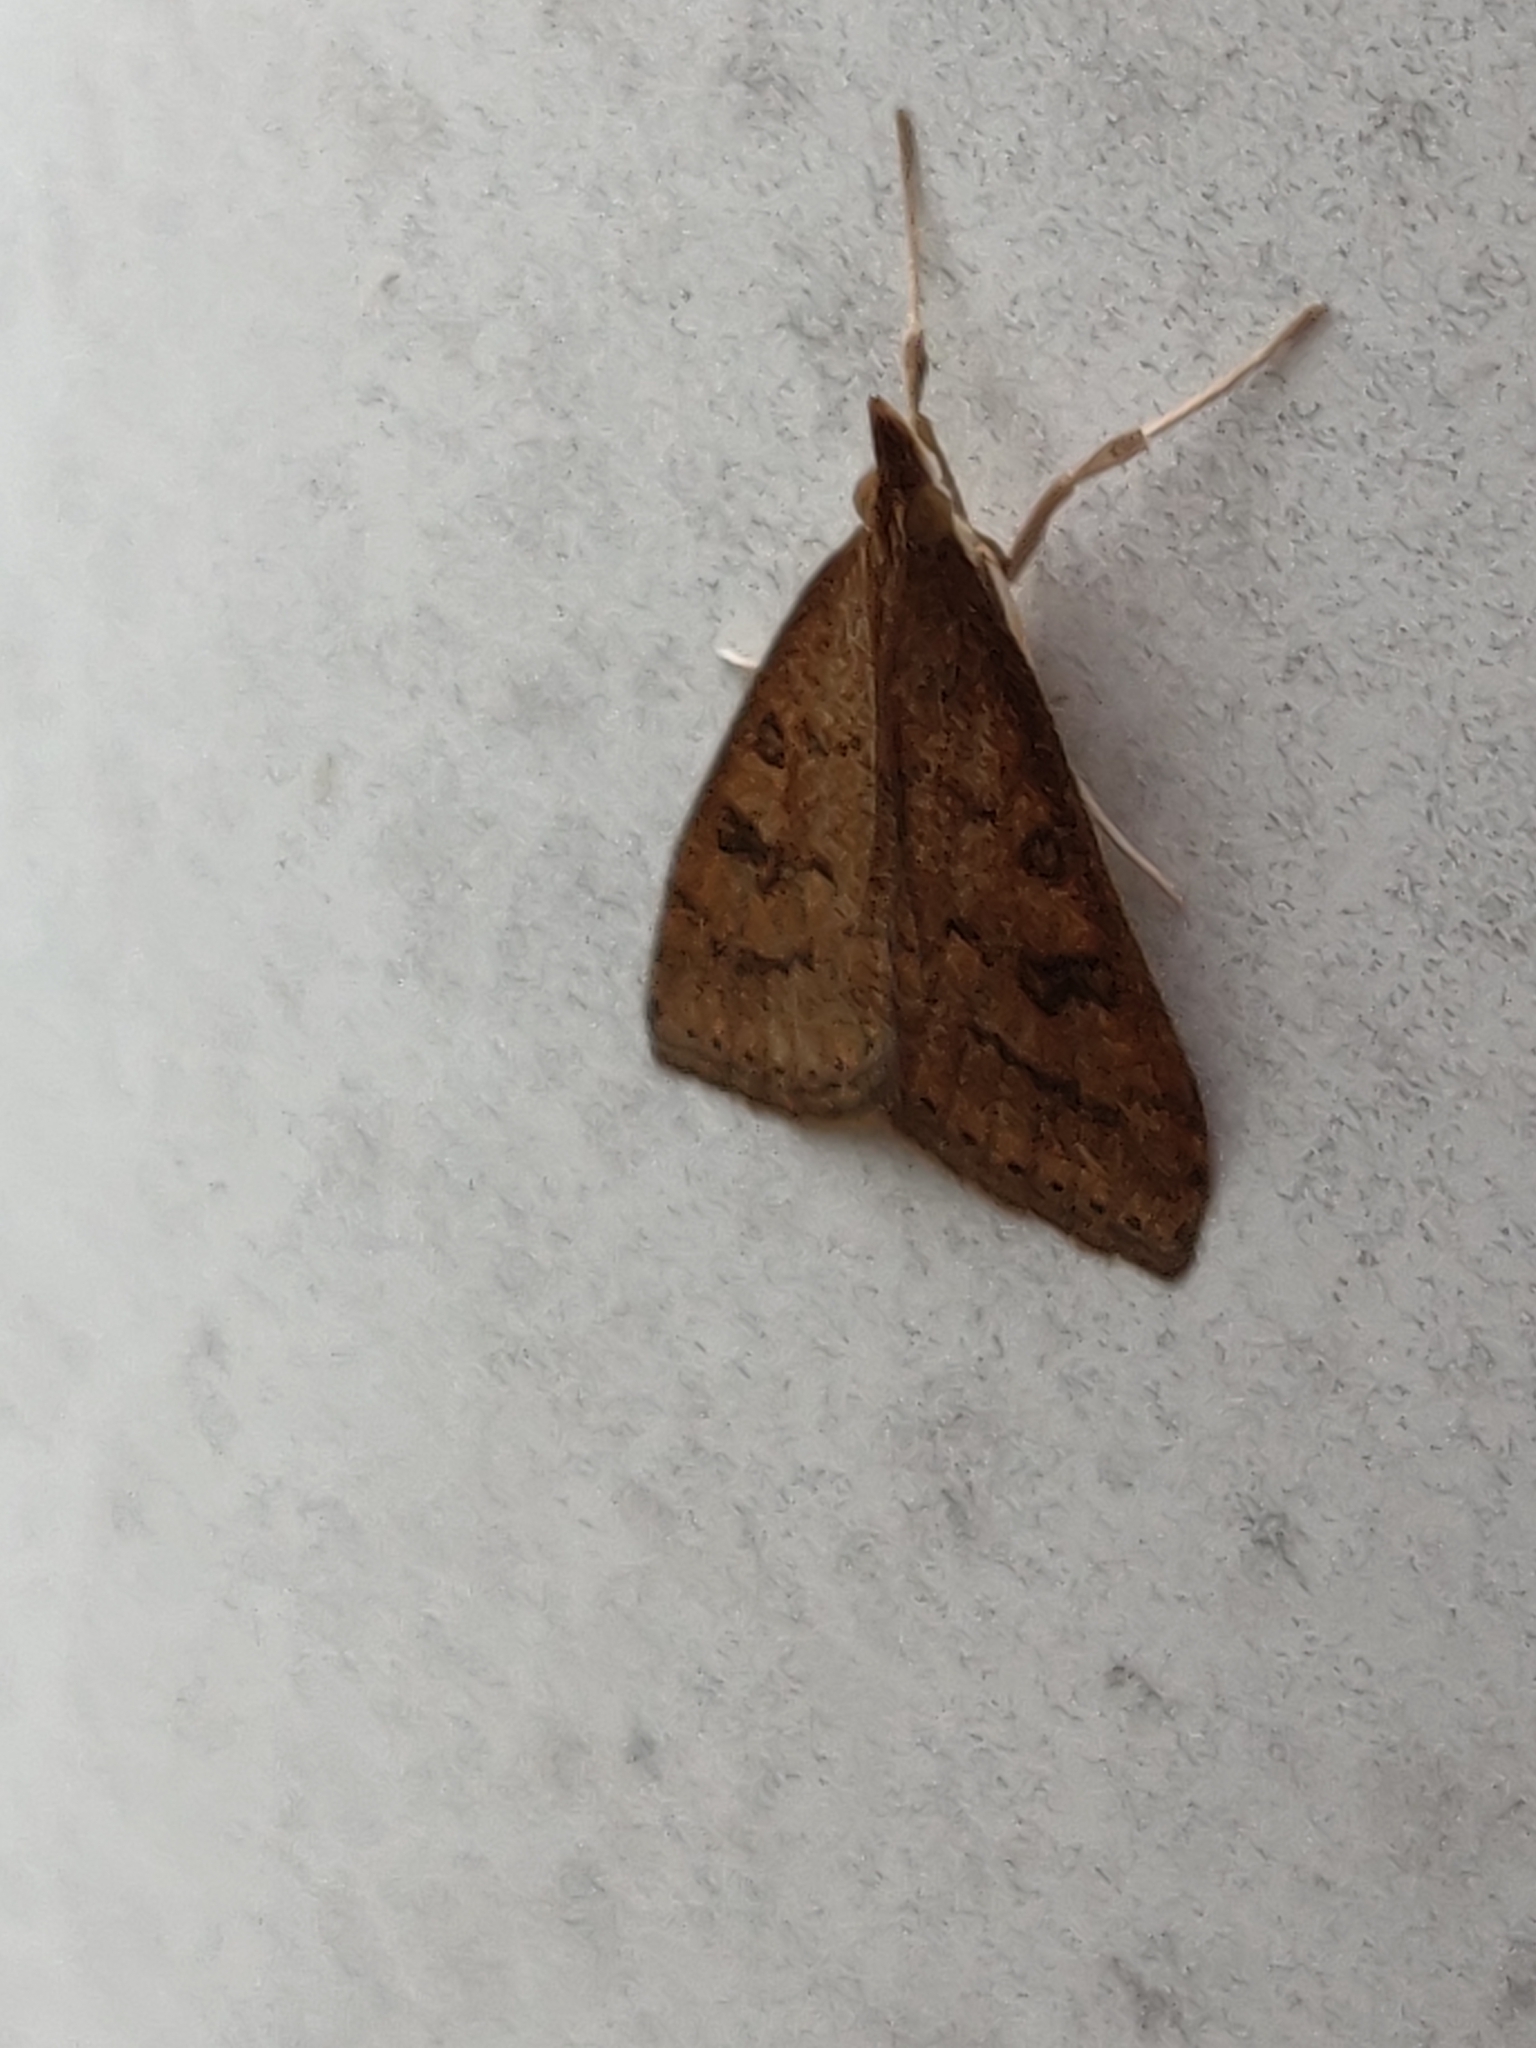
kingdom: Animalia
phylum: Arthropoda
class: Insecta
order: Lepidoptera
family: Crambidae
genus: Udea
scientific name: Udea rubigalis
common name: Celery leaftier moth
